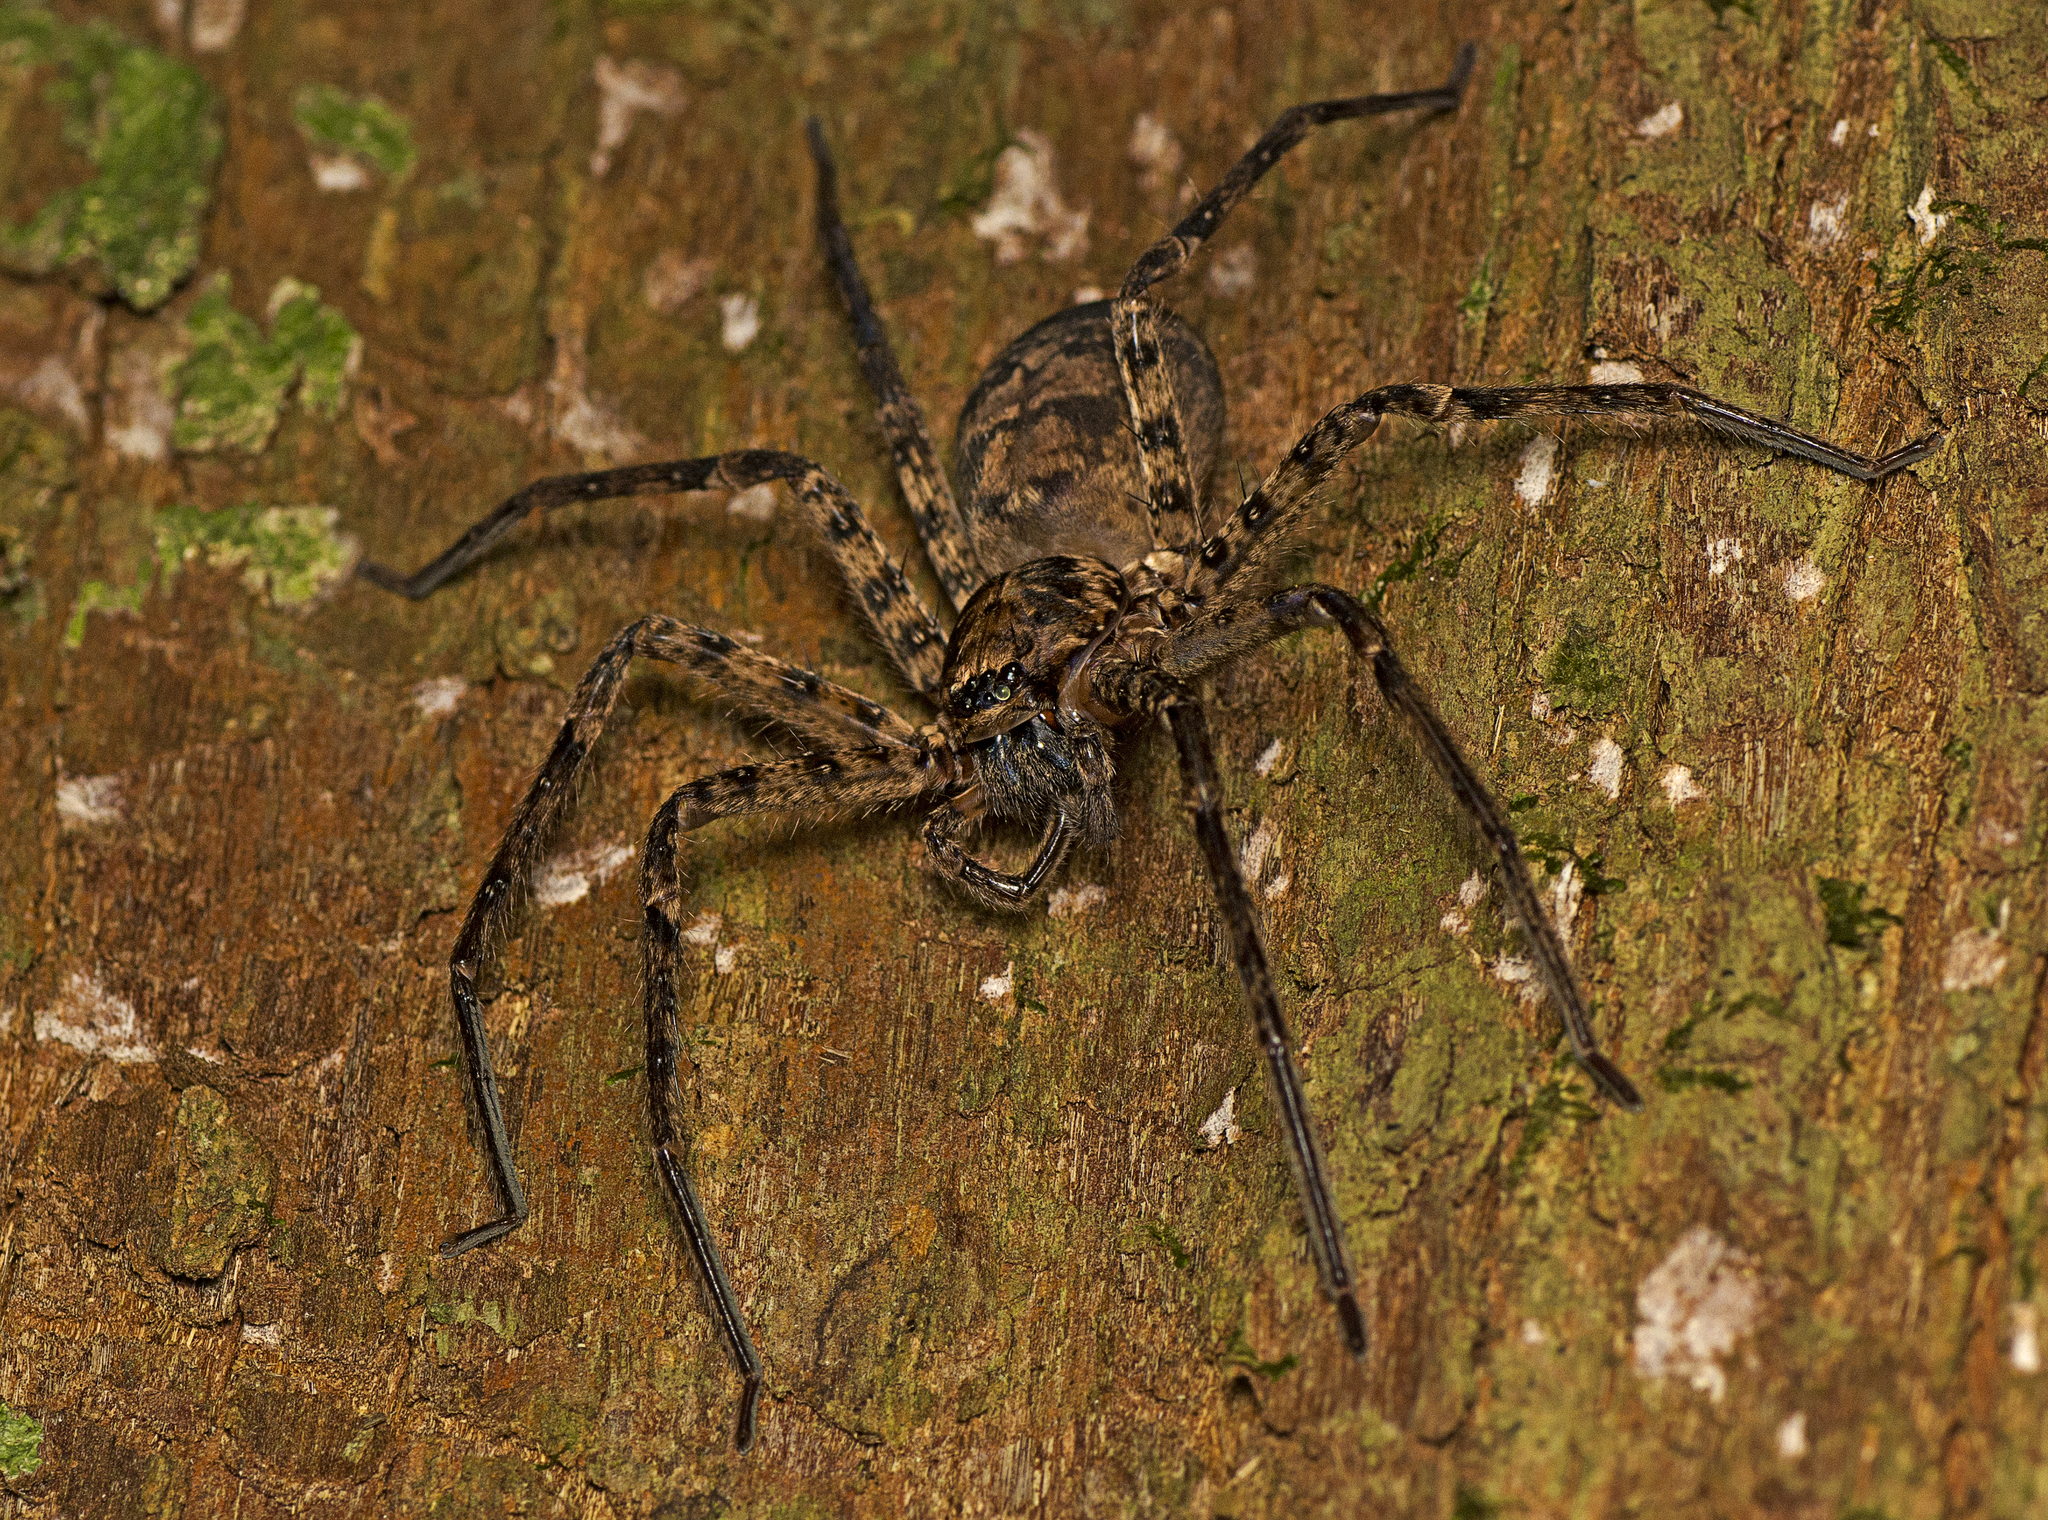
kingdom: Animalia
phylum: Arthropoda
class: Arachnida
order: Araneae
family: Sparassidae
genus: Heteropoda
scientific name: Heteropoda procera
